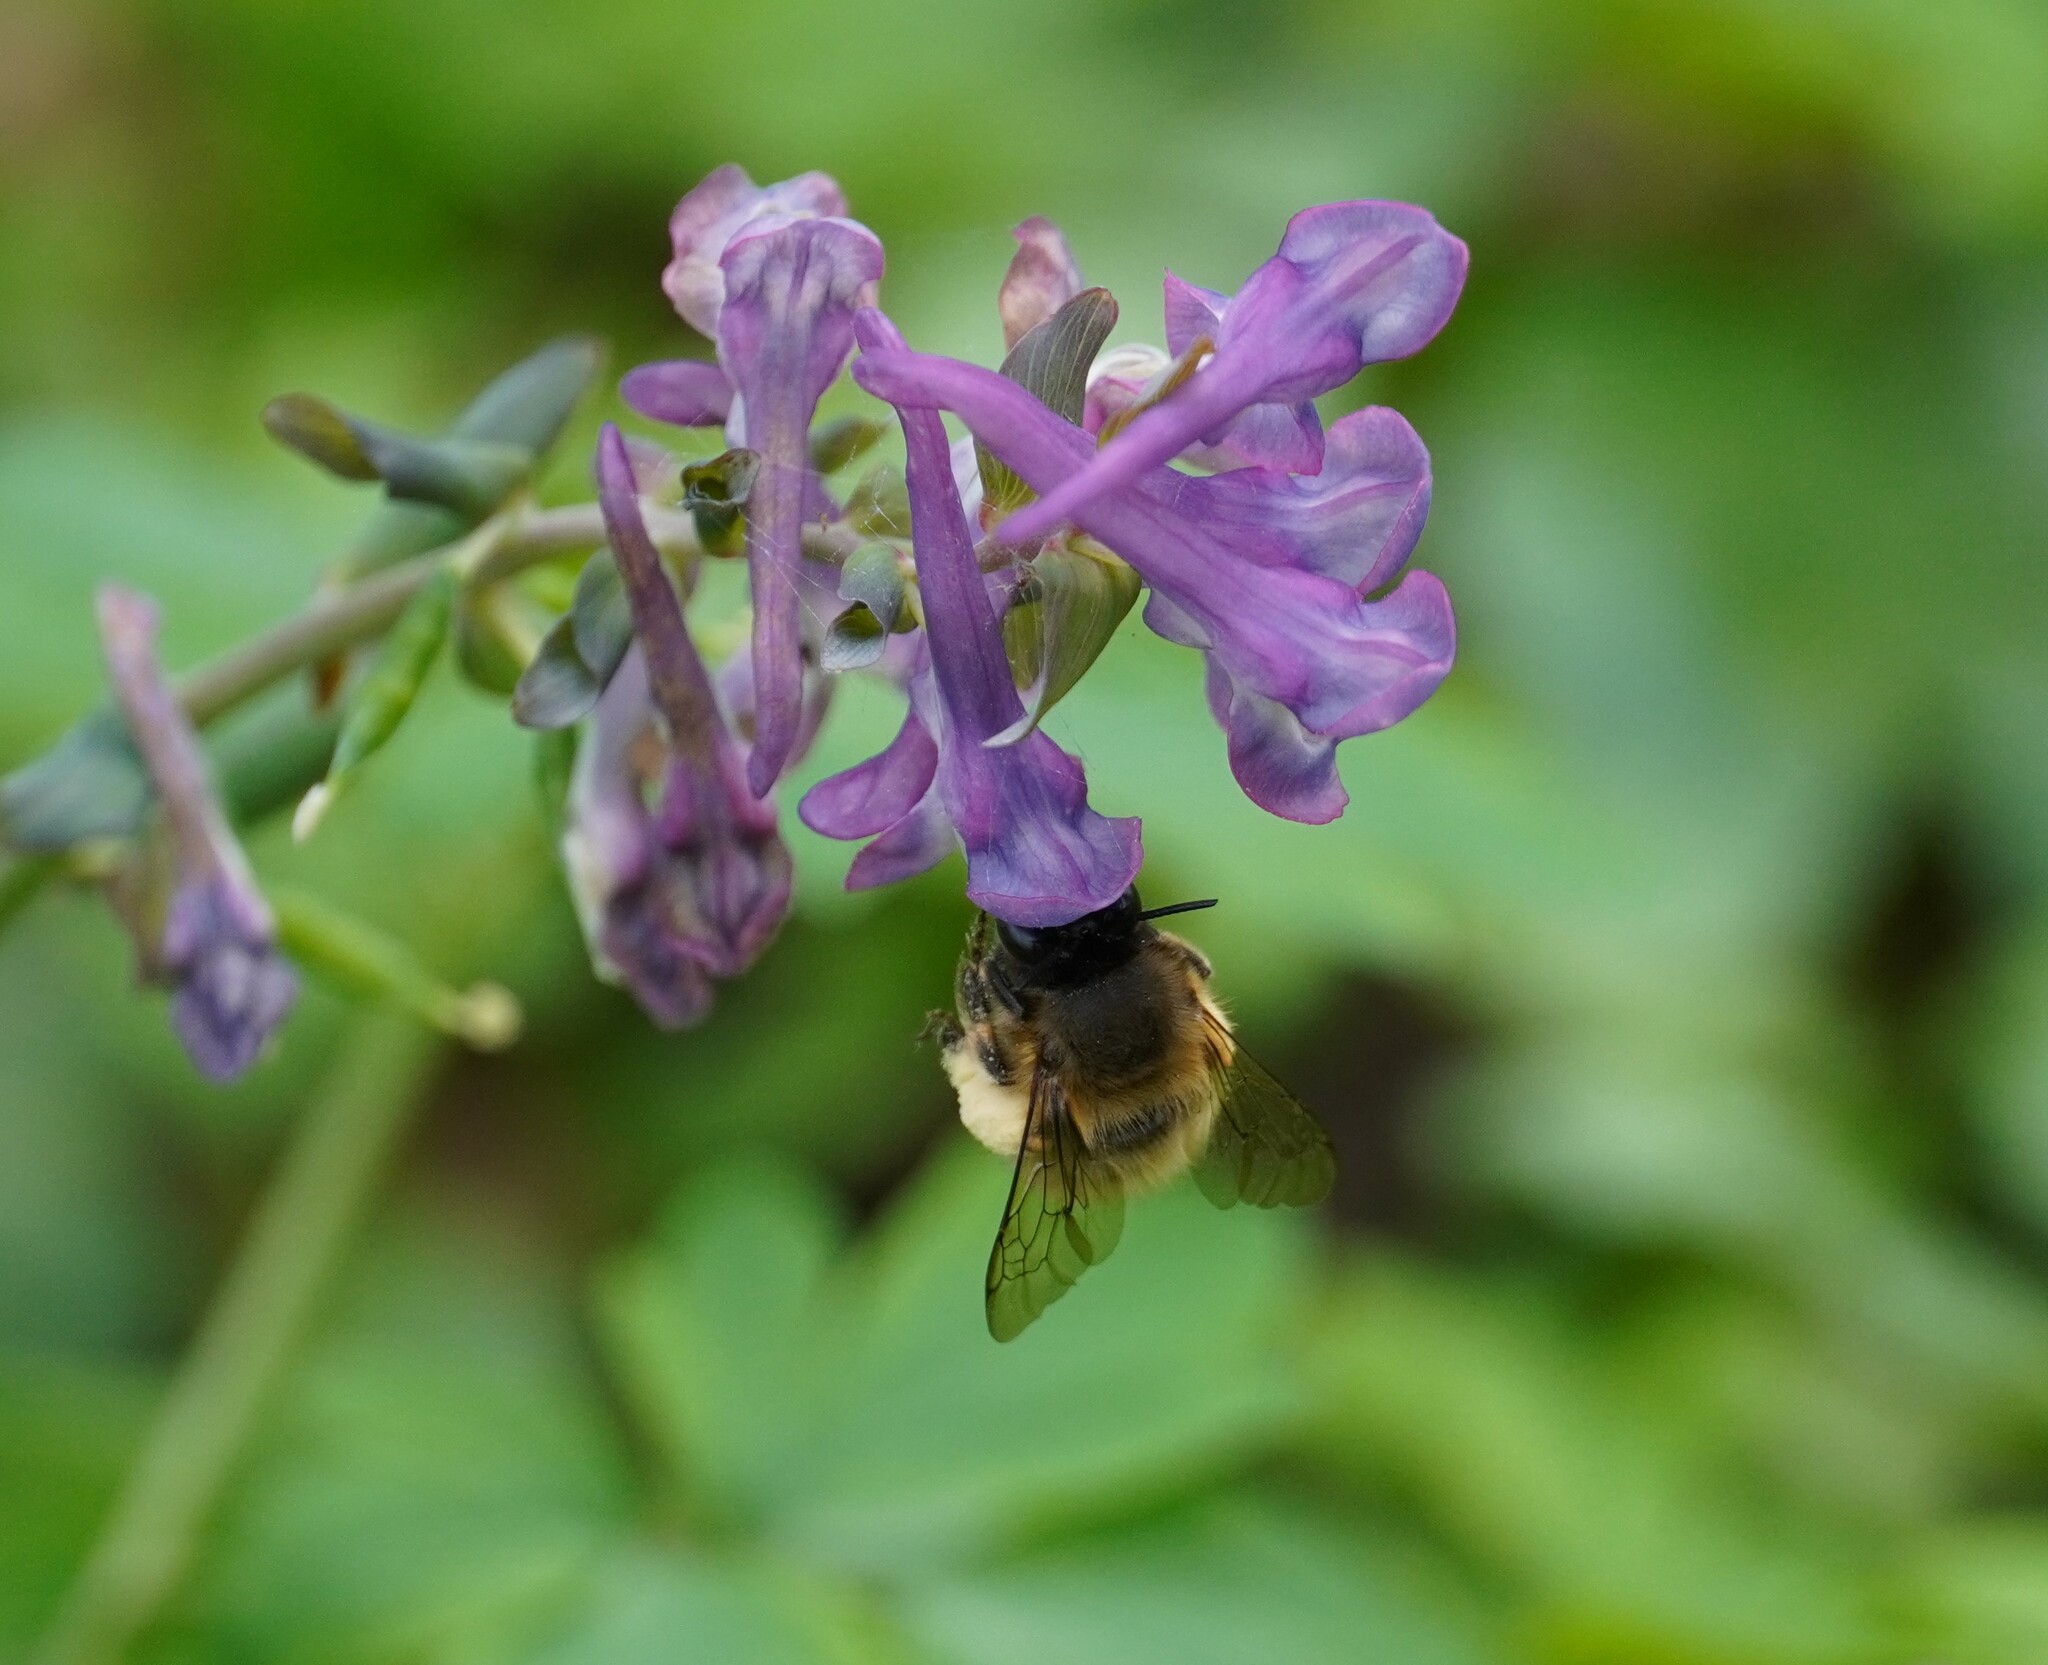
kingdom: Animalia
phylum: Arthropoda
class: Insecta
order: Hymenoptera
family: Apidae
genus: Anthophora
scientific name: Anthophora plumipes
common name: Hairy-footed flower bee
